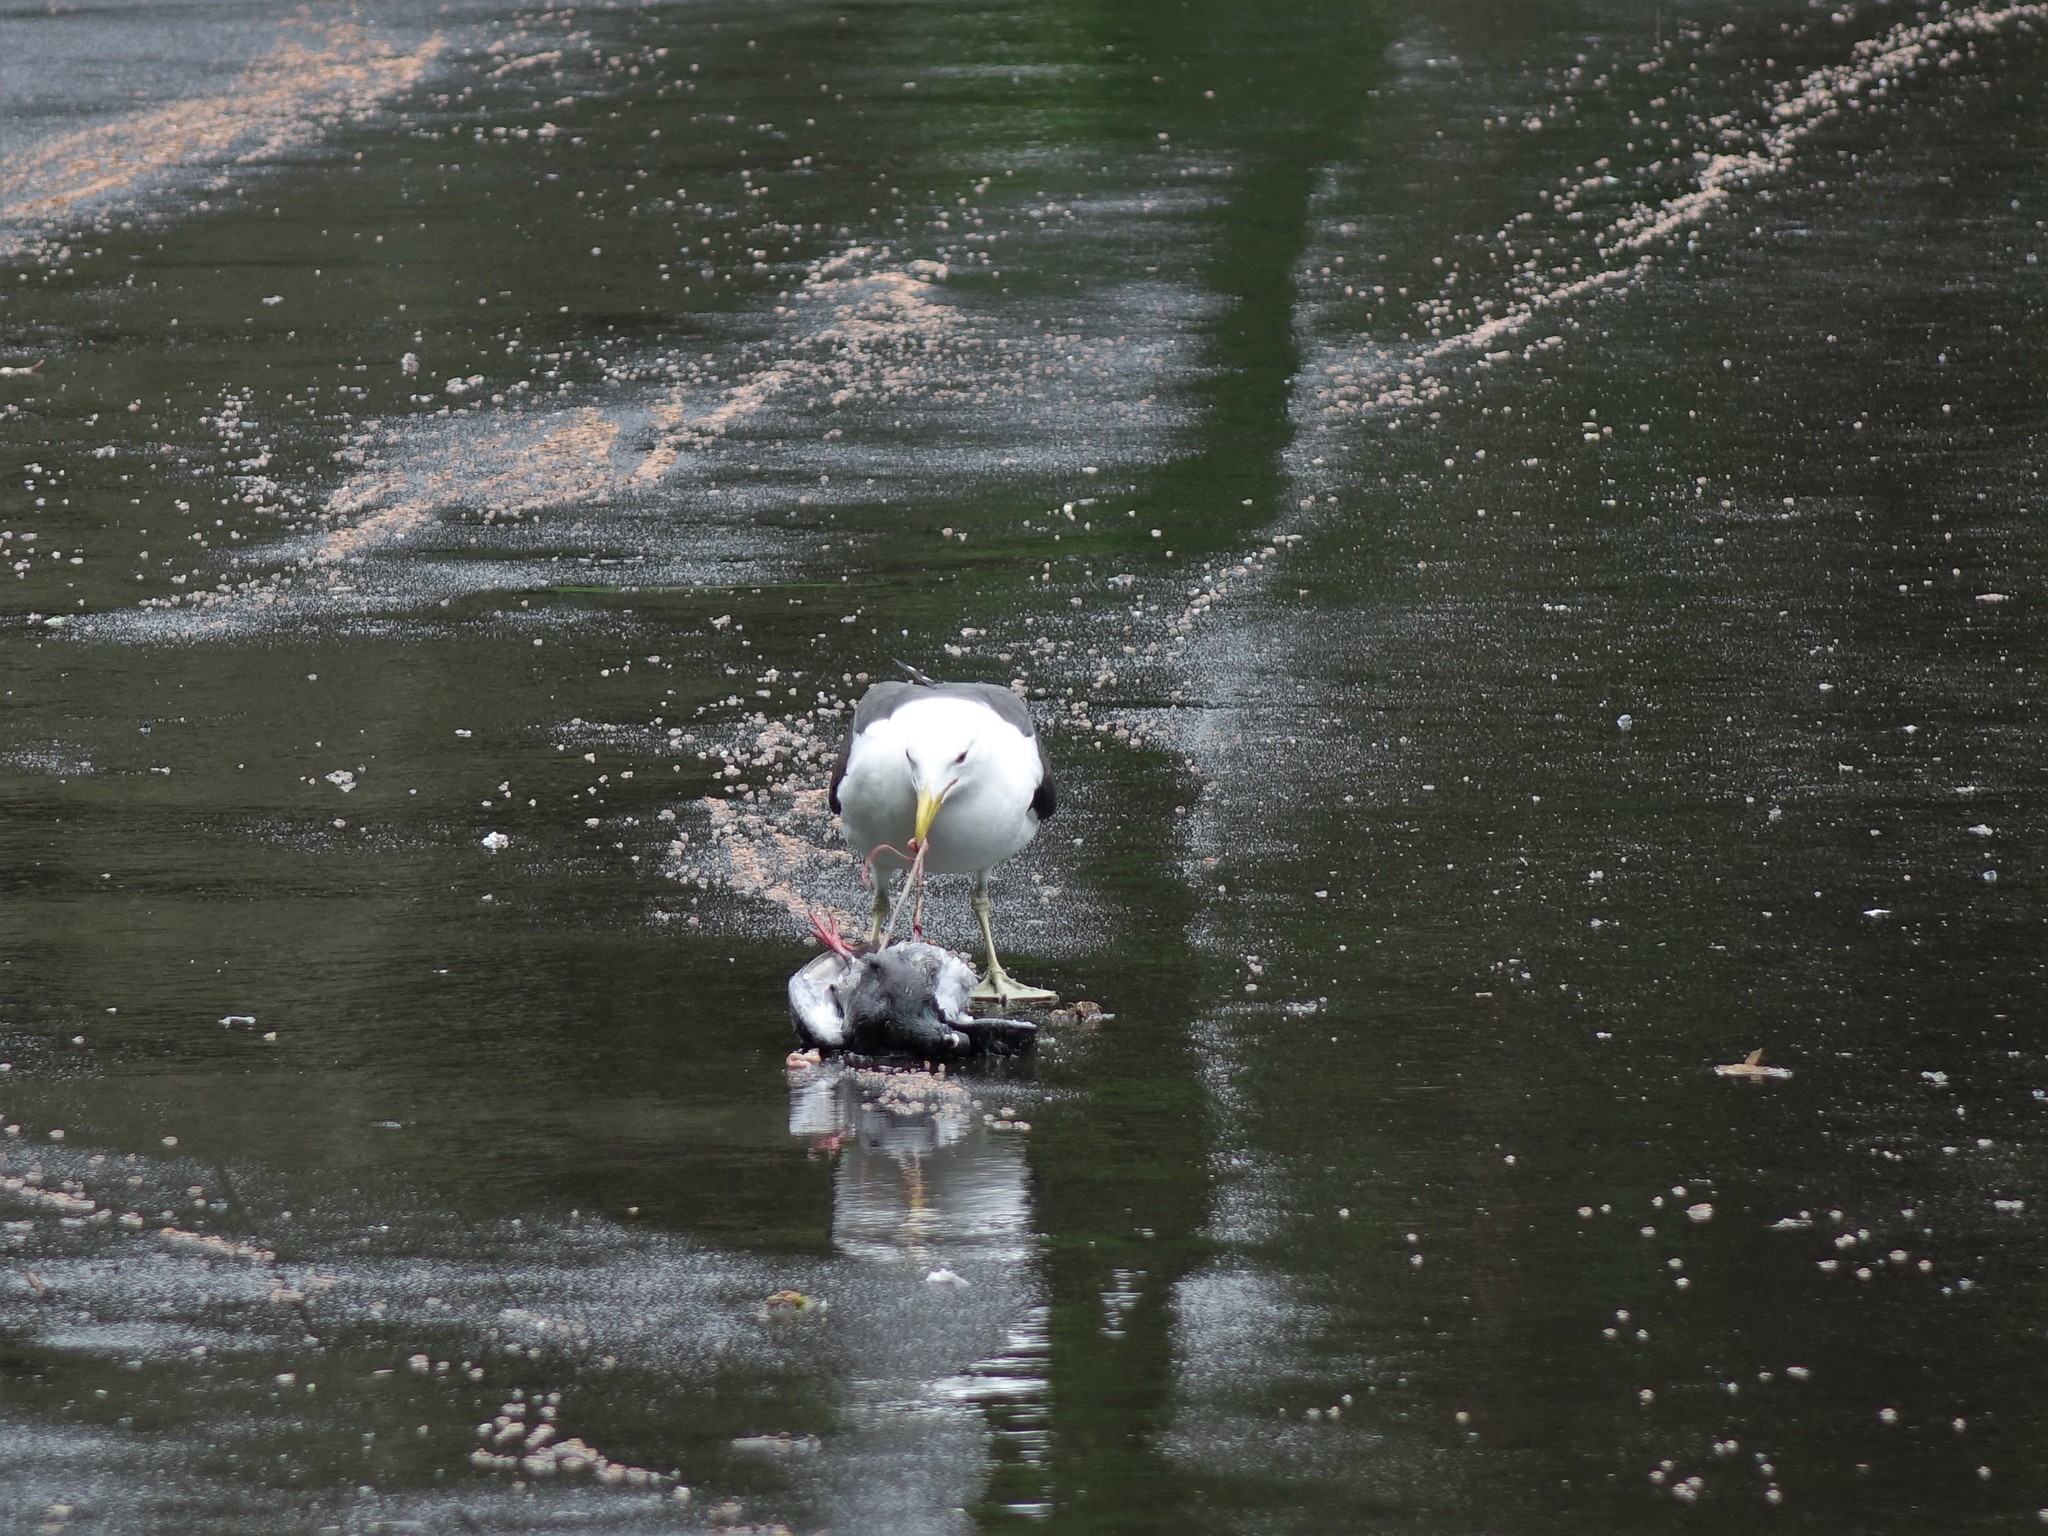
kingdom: Animalia
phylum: Chordata
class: Aves
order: Charadriiformes
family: Laridae
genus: Larus
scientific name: Larus dominicanus
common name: Kelp gull
